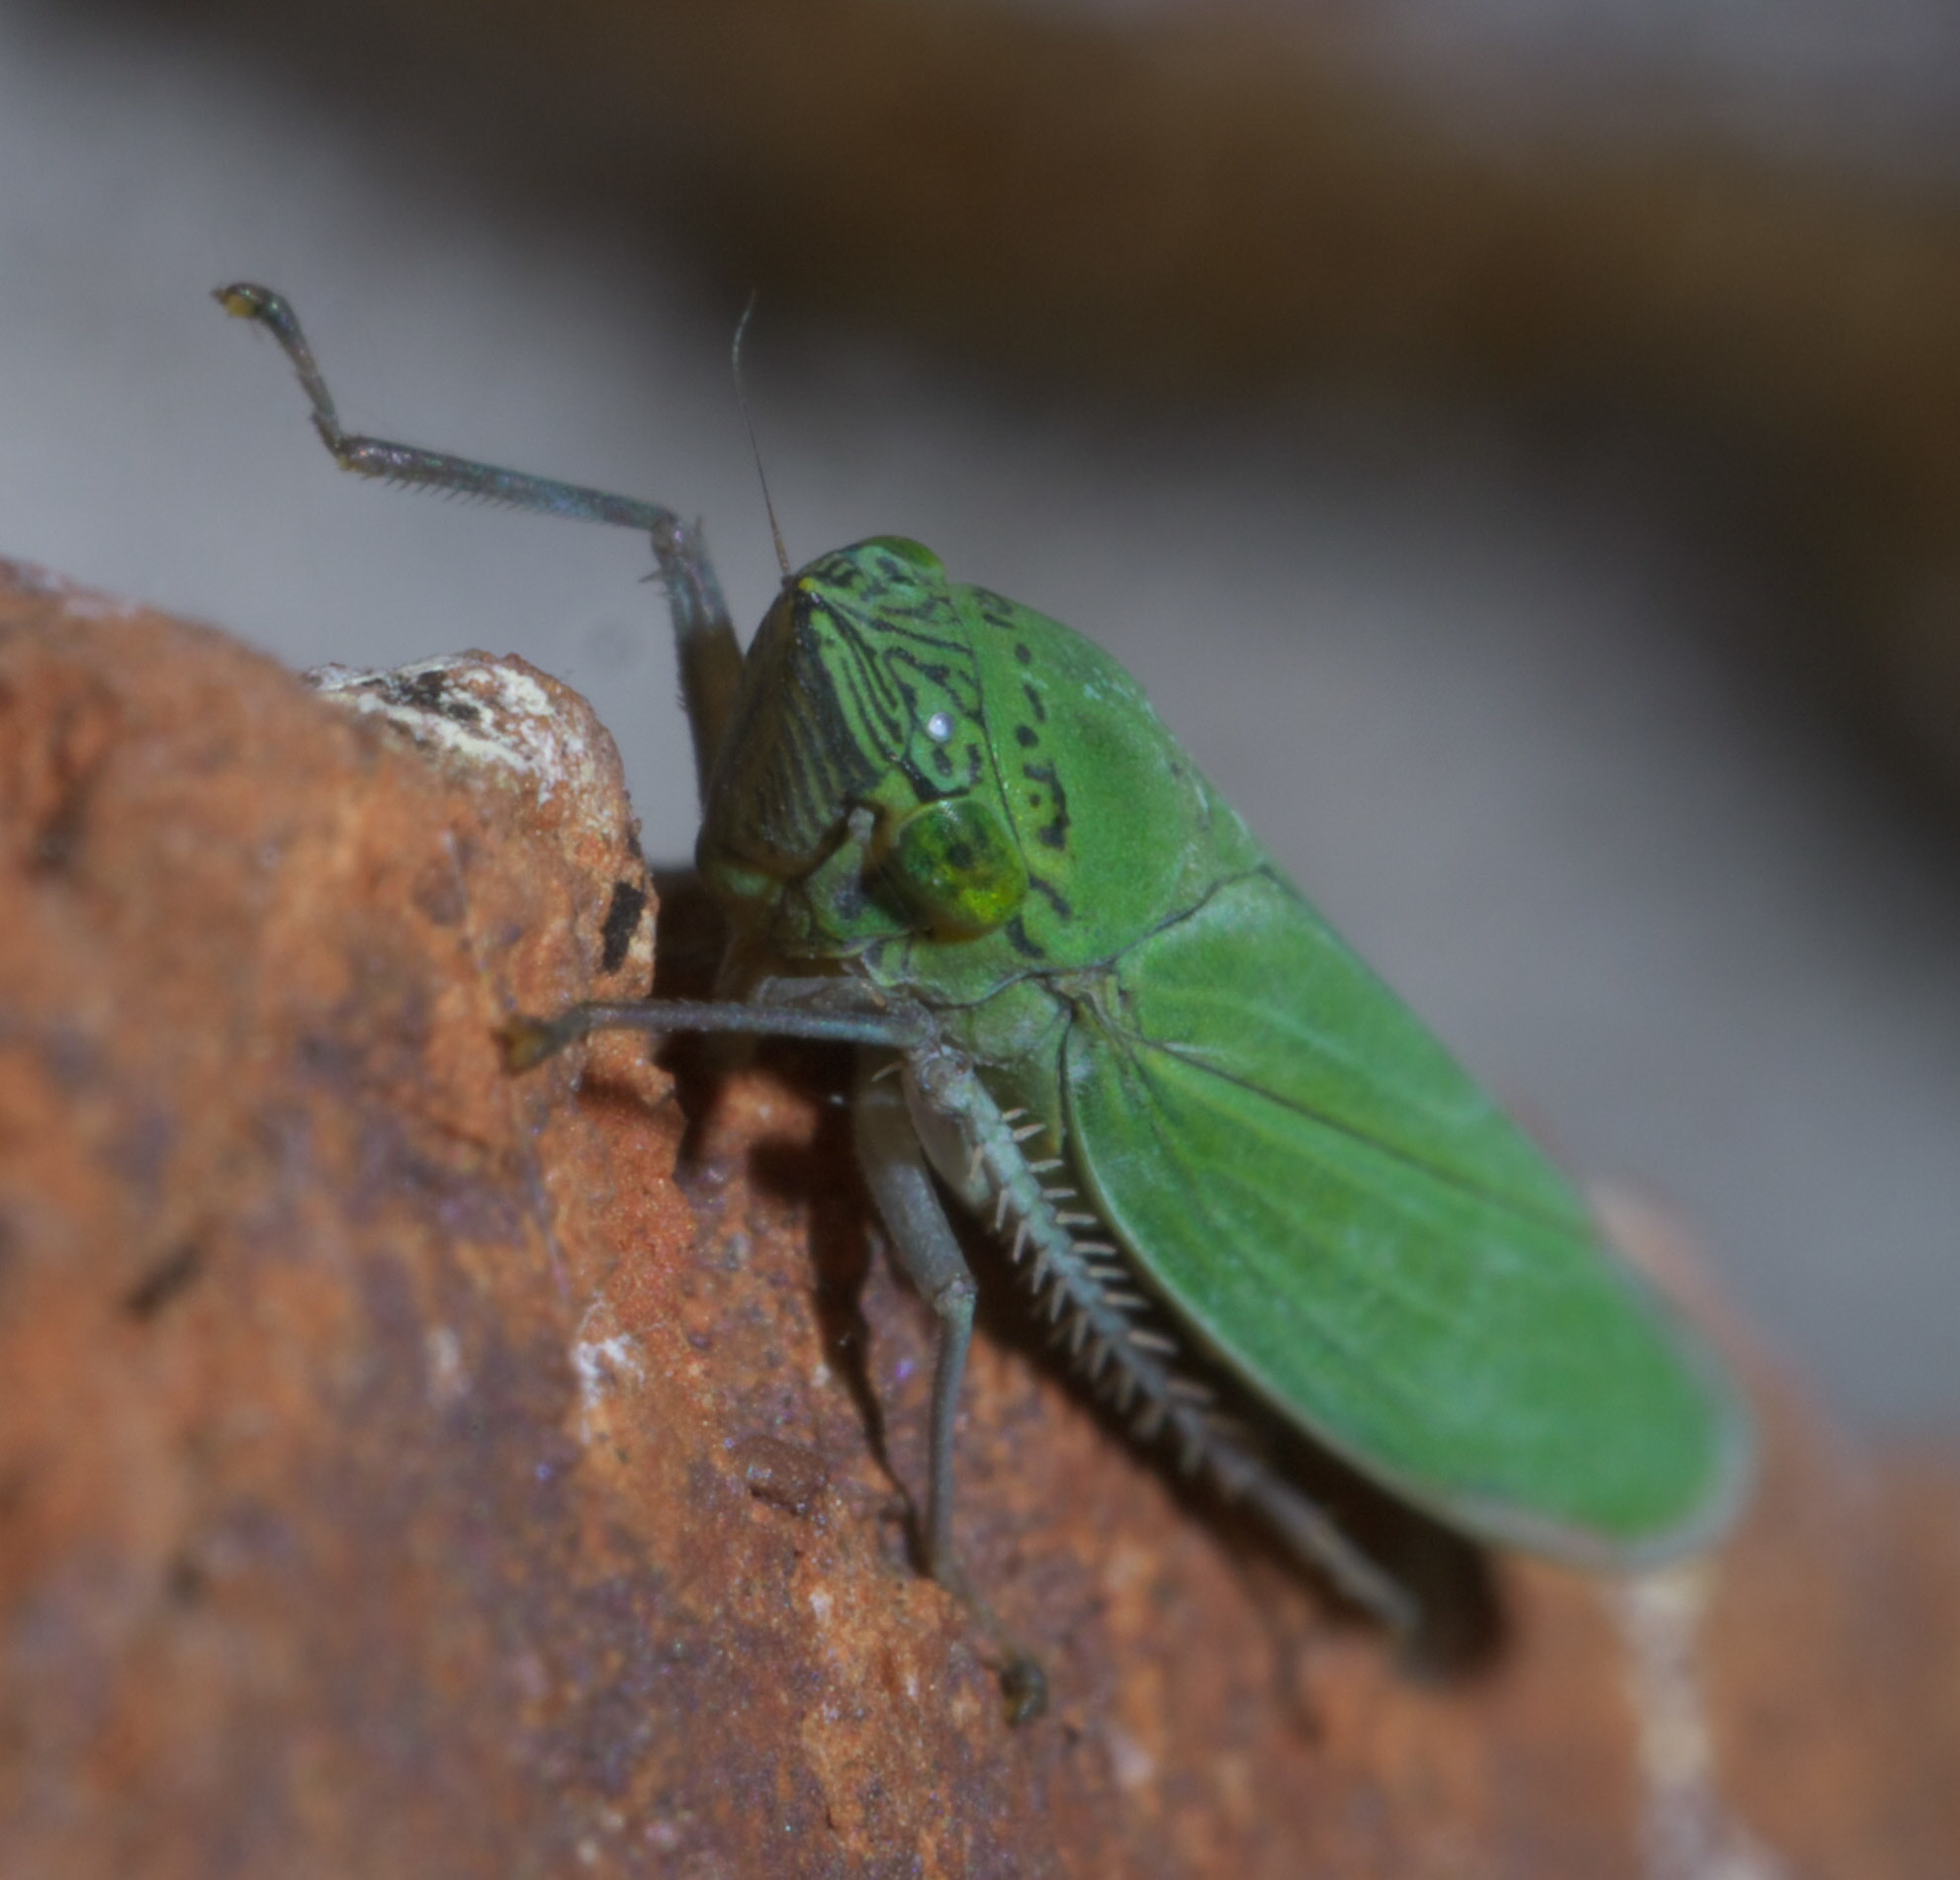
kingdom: Animalia
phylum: Arthropoda
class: Insecta
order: Hemiptera
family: Cicadellidae
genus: Draeculacephala
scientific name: Draeculacephala inscripta
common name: Leafhopper
